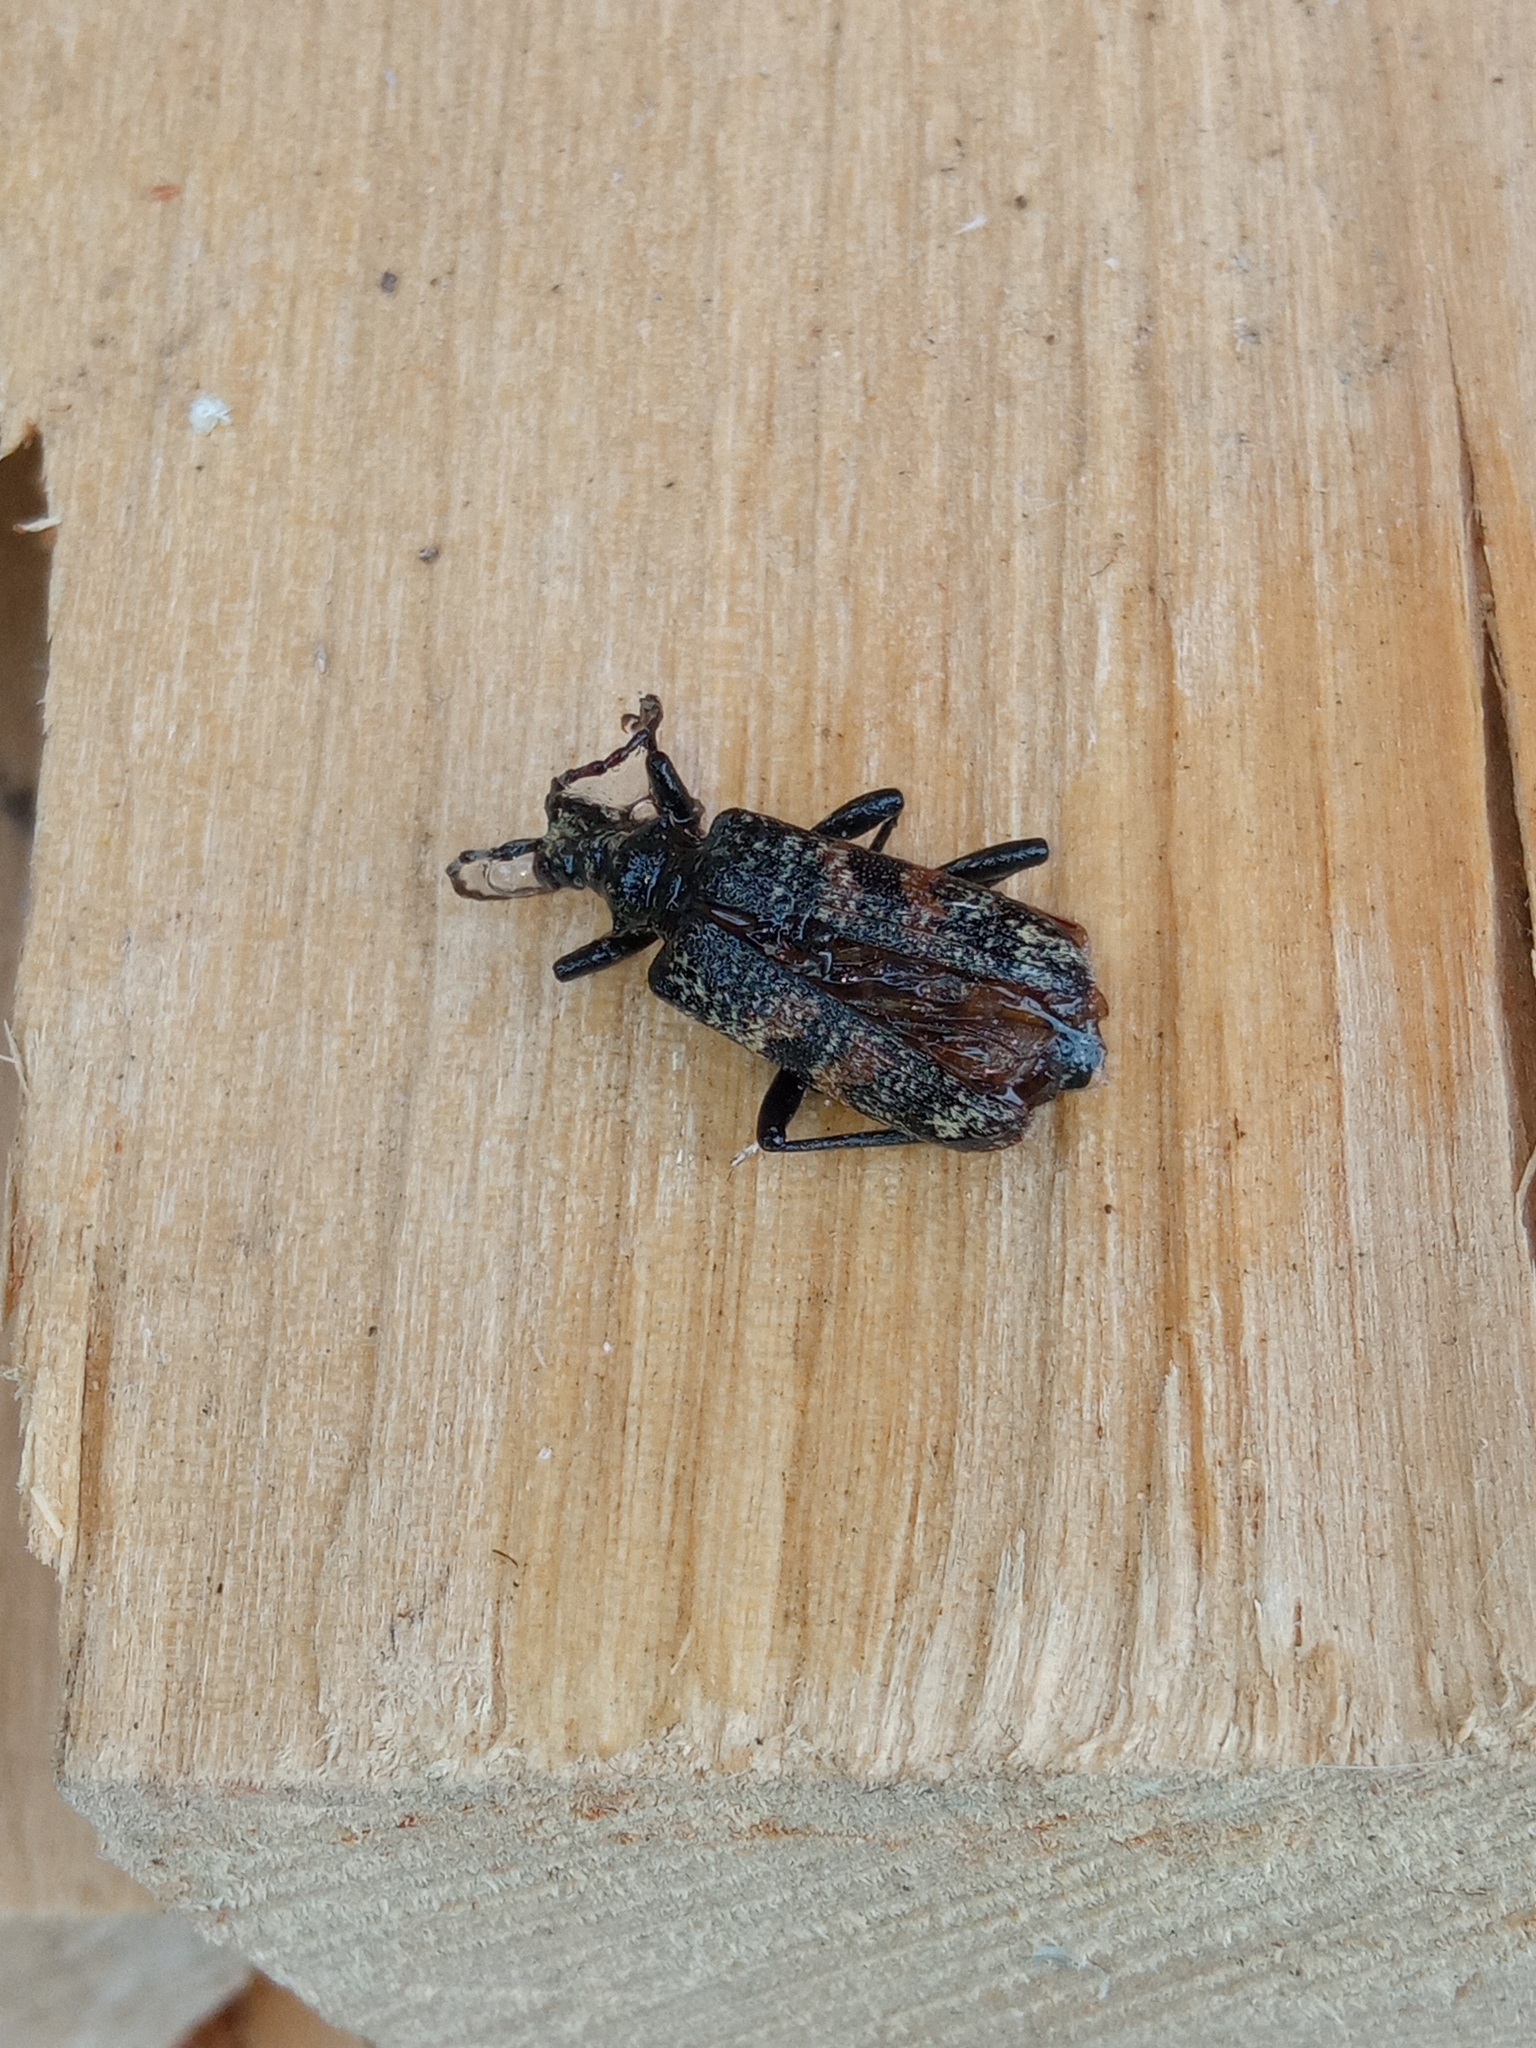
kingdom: Animalia
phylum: Arthropoda
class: Insecta
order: Coleoptera
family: Cerambycidae
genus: Rhagium
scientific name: Rhagium mordax
